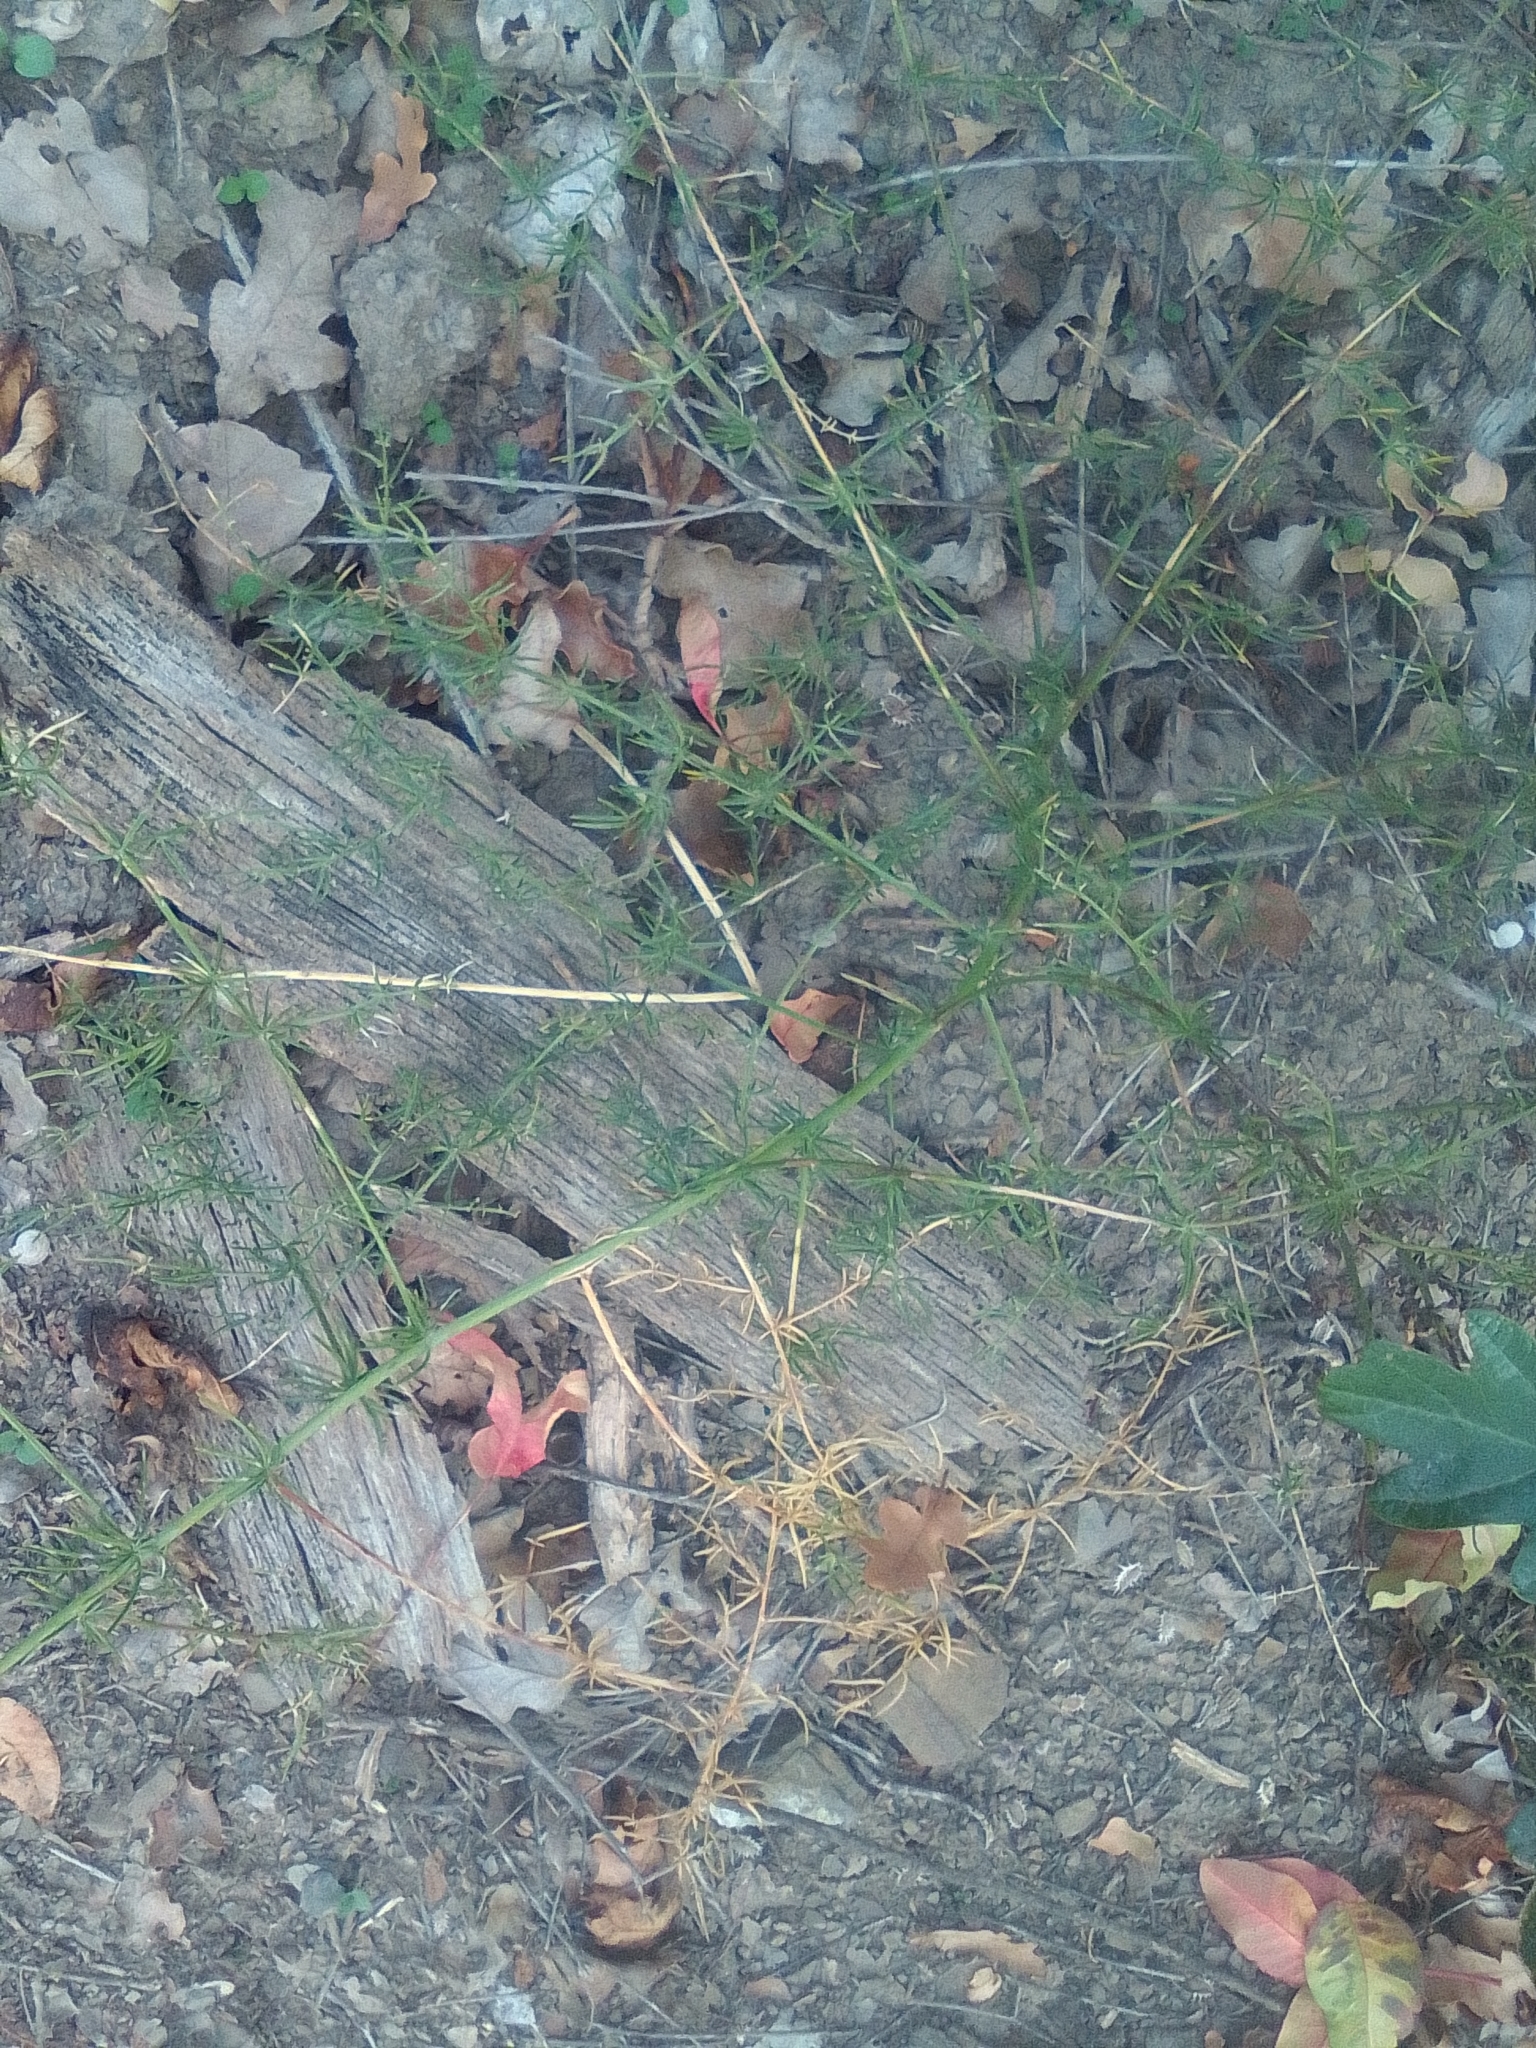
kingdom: Plantae
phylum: Tracheophyta
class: Liliopsida
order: Asparagales
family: Asparagaceae
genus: Asparagus
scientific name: Asparagus verticillatus
